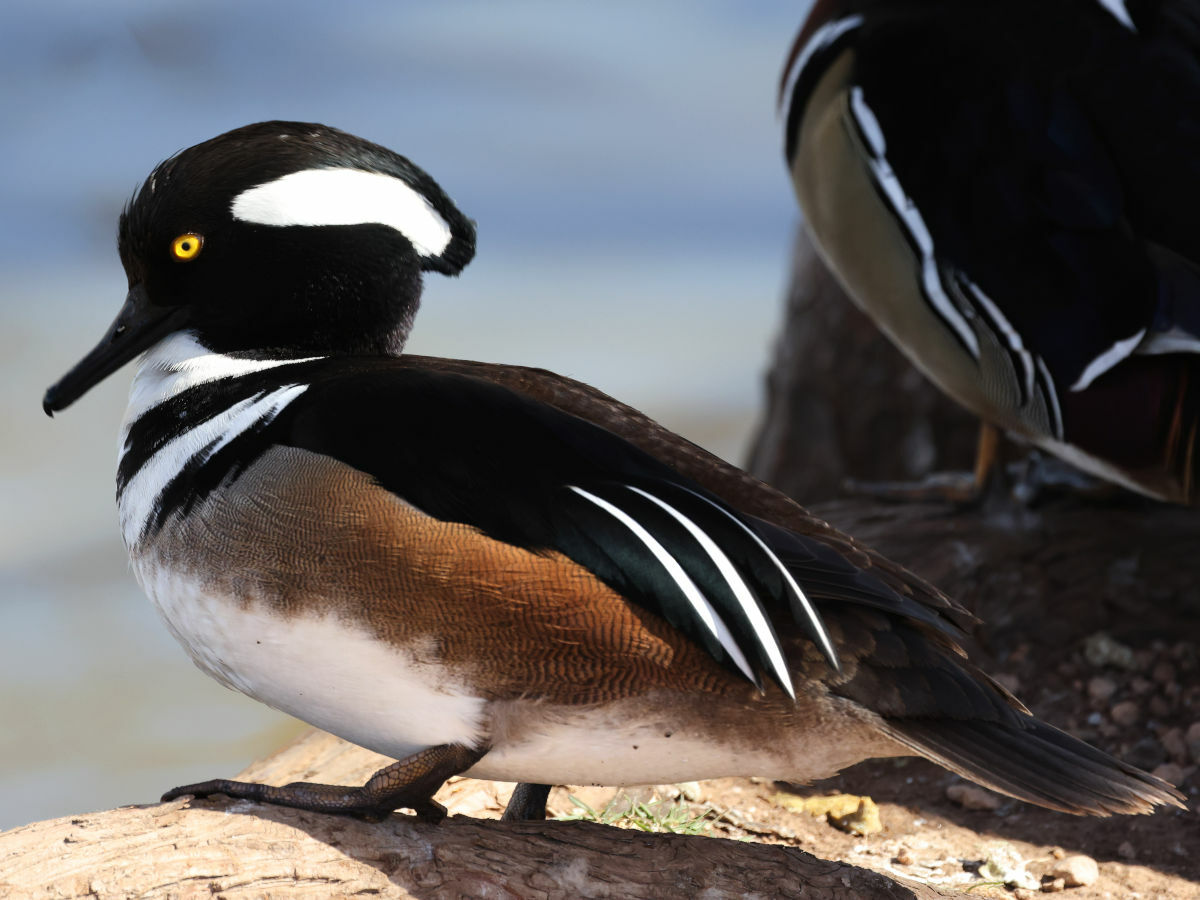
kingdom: Animalia
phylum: Chordata
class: Aves
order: Anseriformes
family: Anatidae
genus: Lophodytes
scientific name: Lophodytes cucullatus
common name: Hooded merganser
